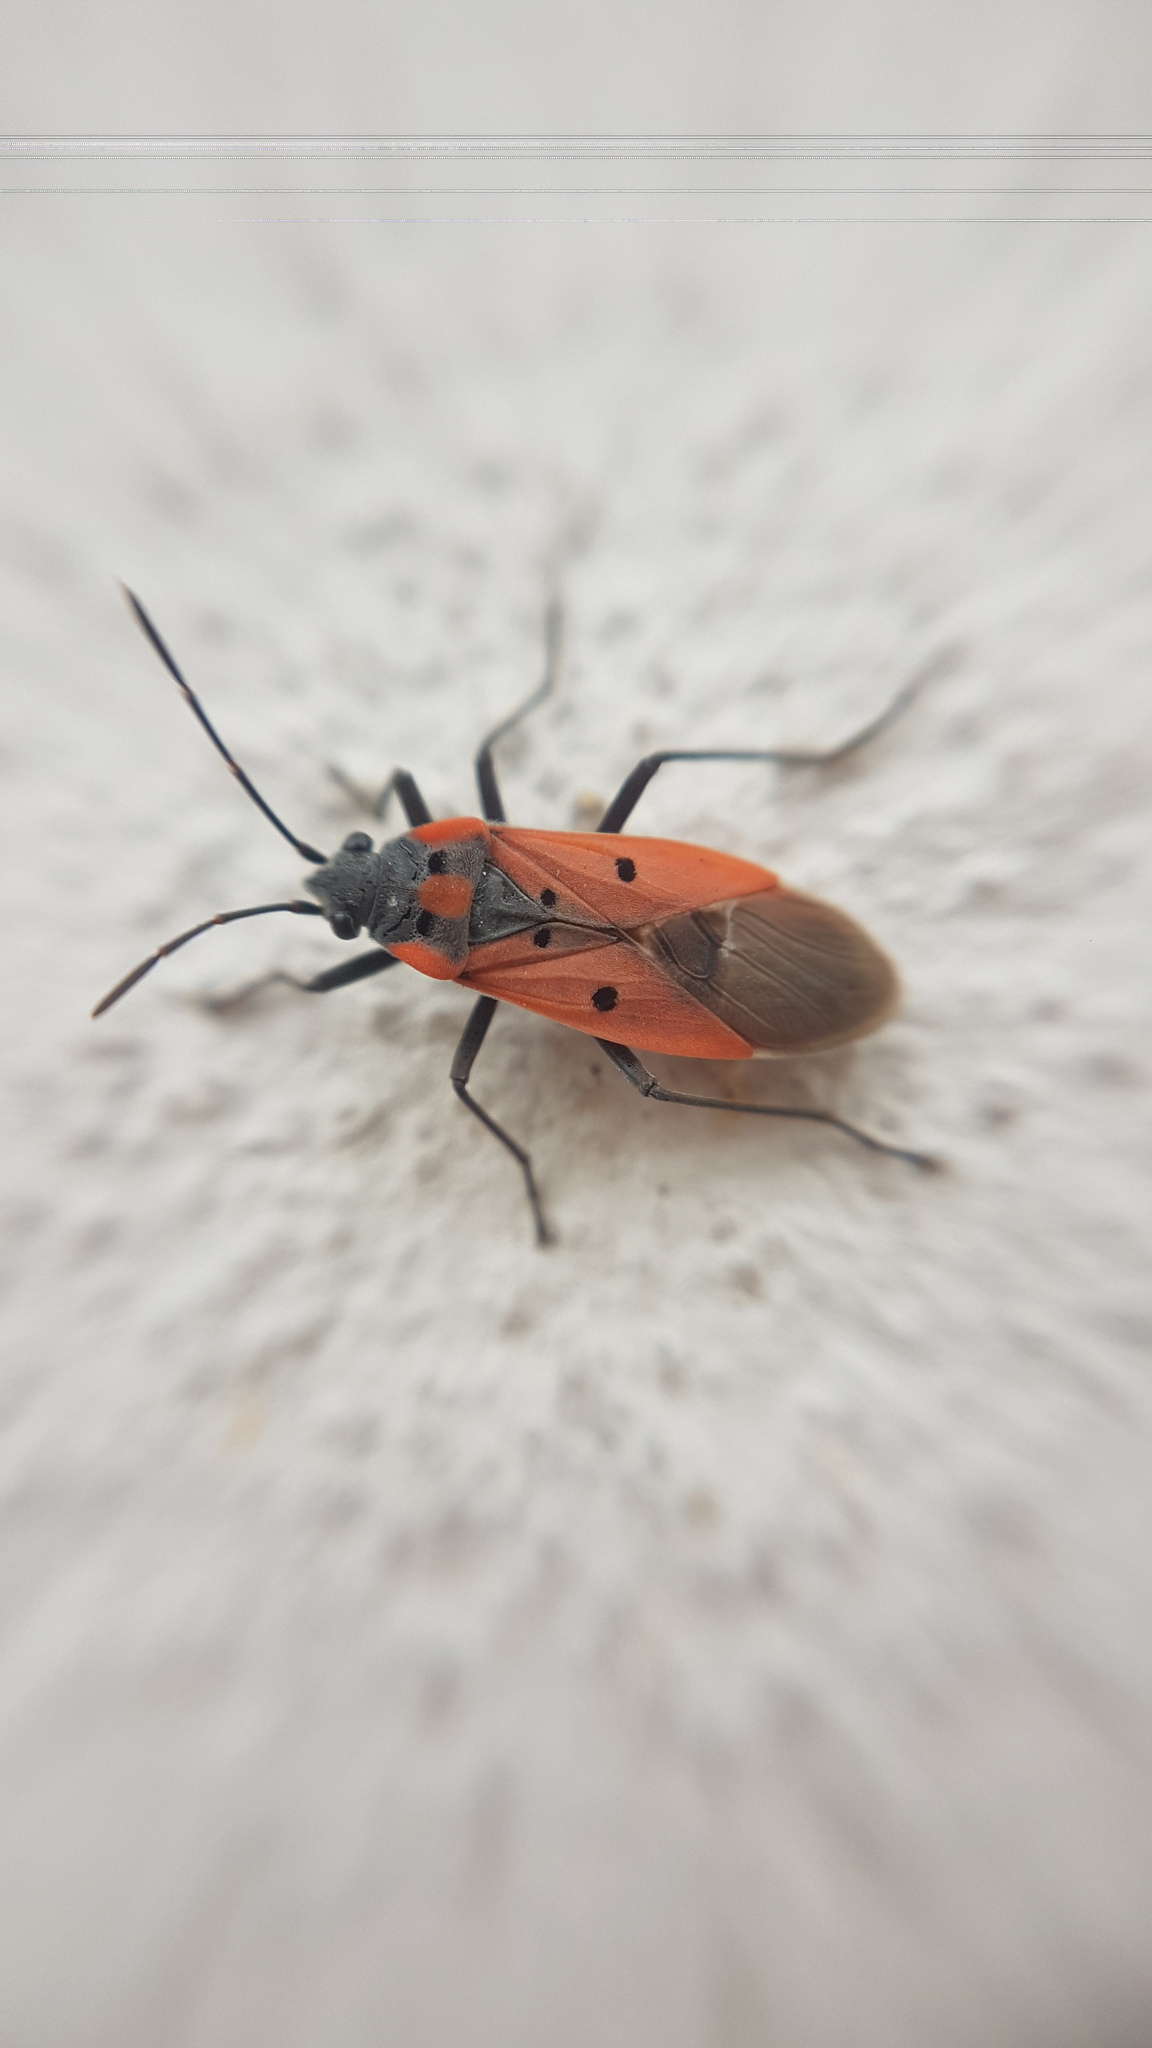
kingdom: Animalia
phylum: Arthropoda
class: Insecta
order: Hemiptera
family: Lygaeidae
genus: Lygaeus
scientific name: Lygaeus creticus
